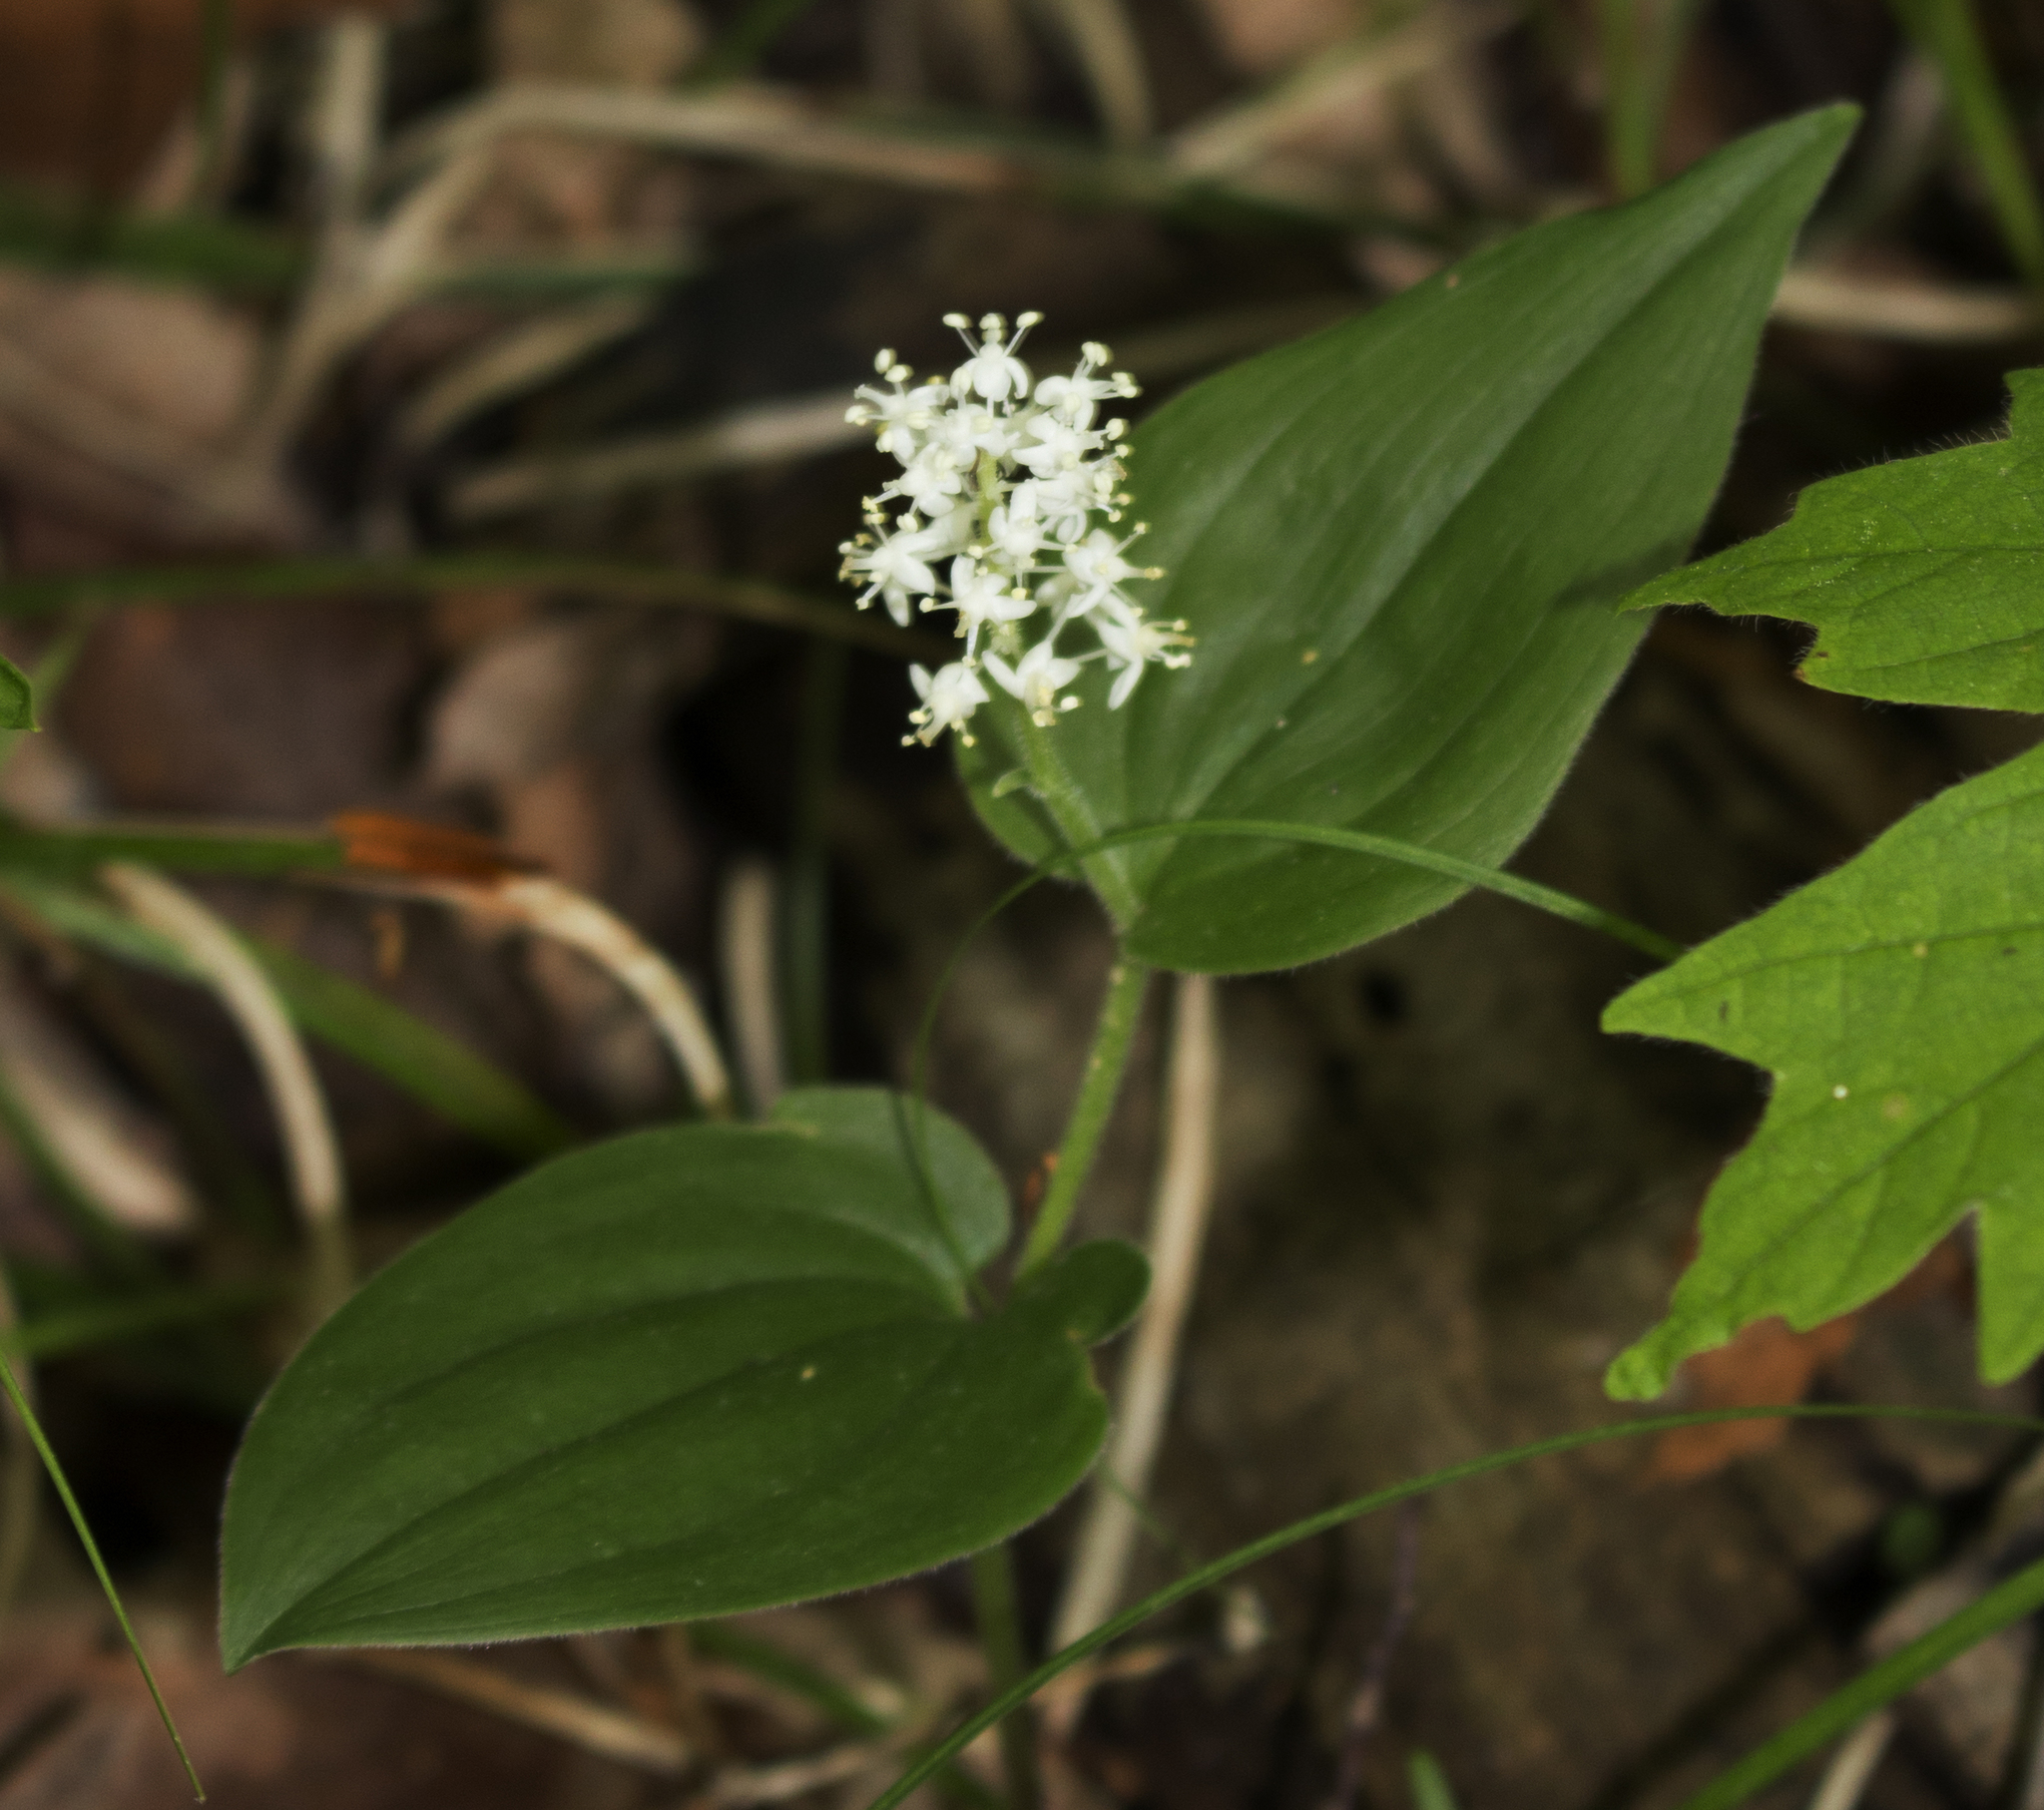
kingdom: Plantae
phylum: Tracheophyta
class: Liliopsida
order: Asparagales
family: Asparagaceae
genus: Maianthemum
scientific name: Maianthemum canadense
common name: False lily-of-the-valley
